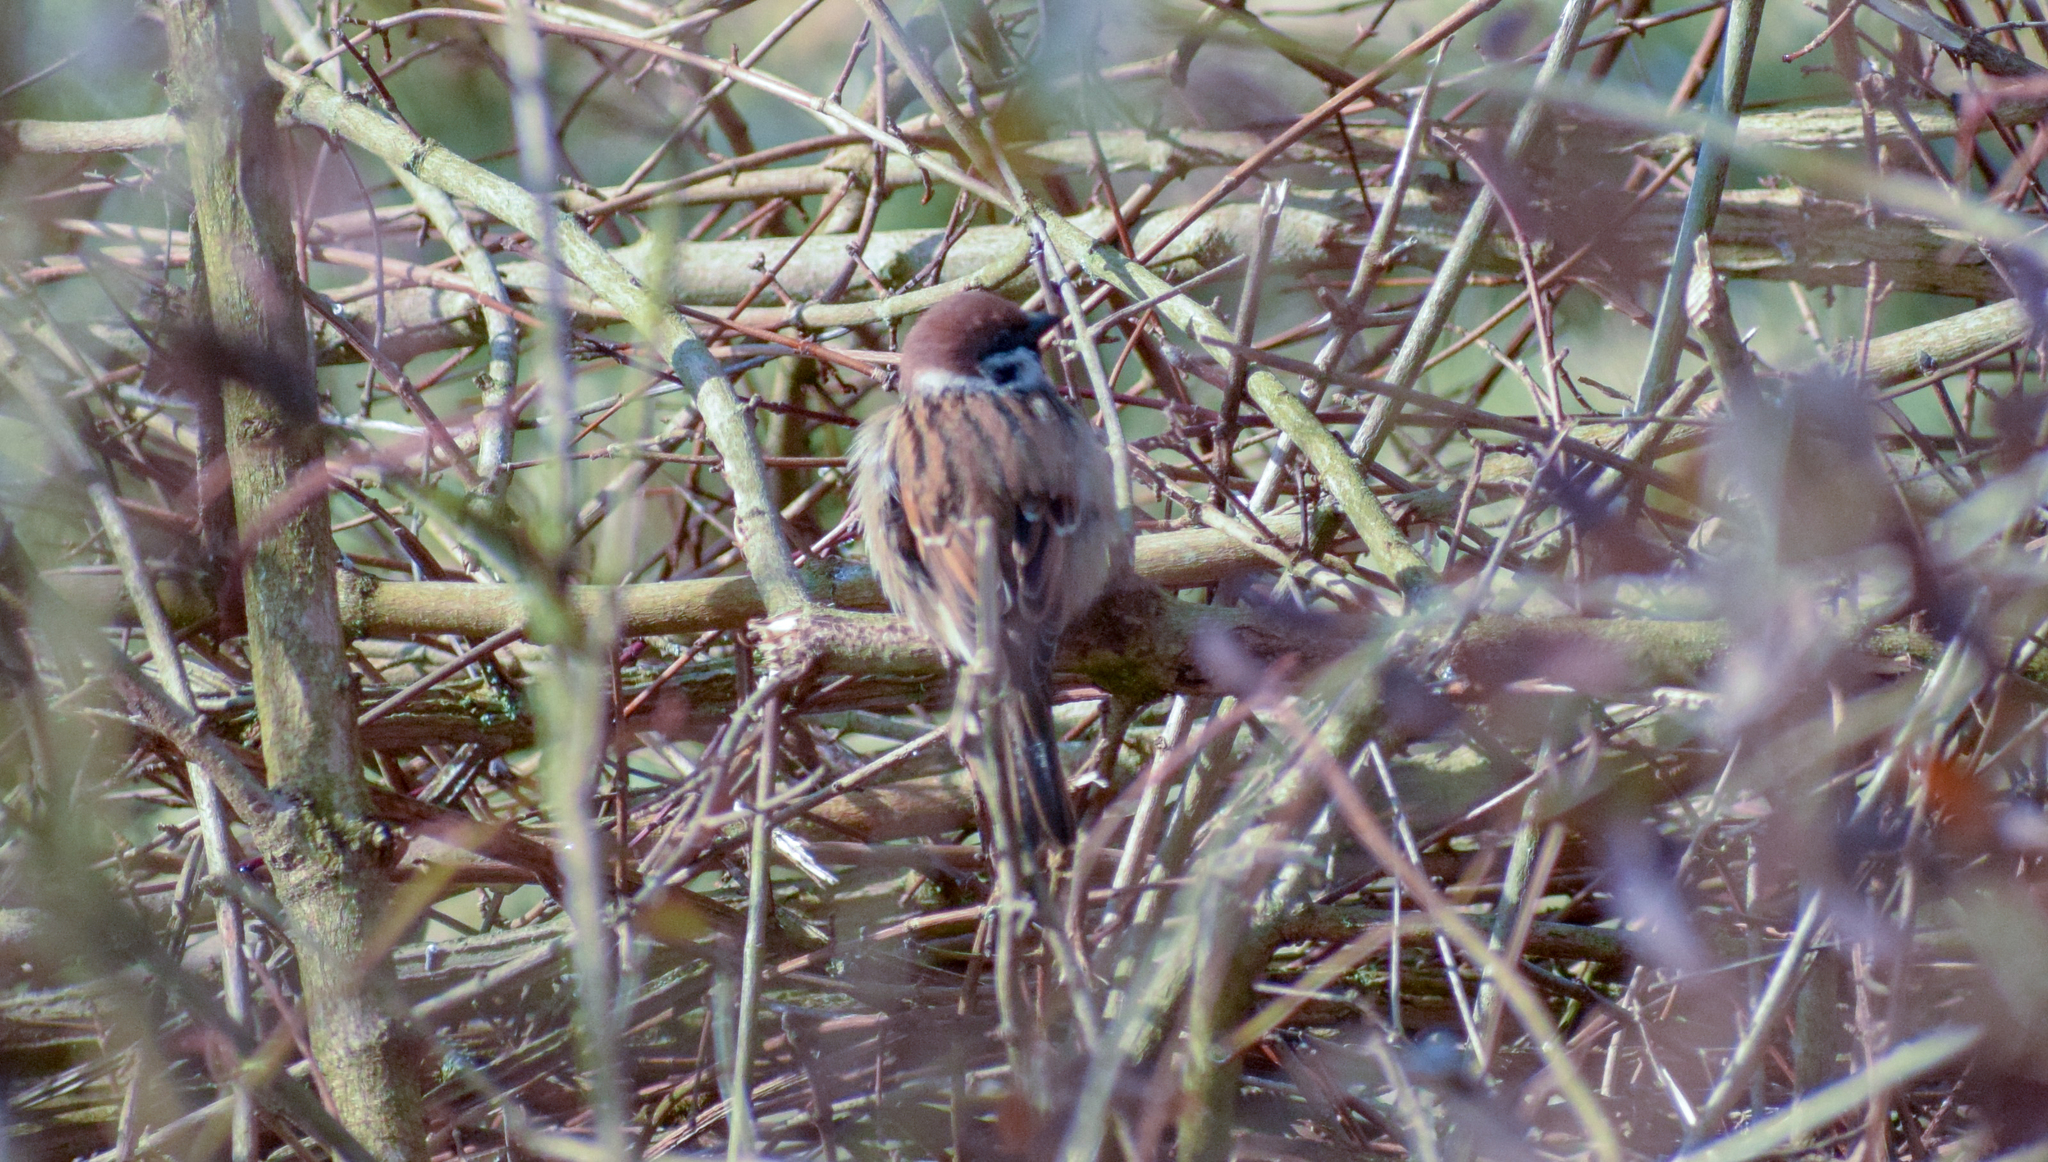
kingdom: Animalia
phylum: Chordata
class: Aves
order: Passeriformes
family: Passeridae
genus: Passer
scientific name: Passer montanus
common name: Eurasian tree sparrow
